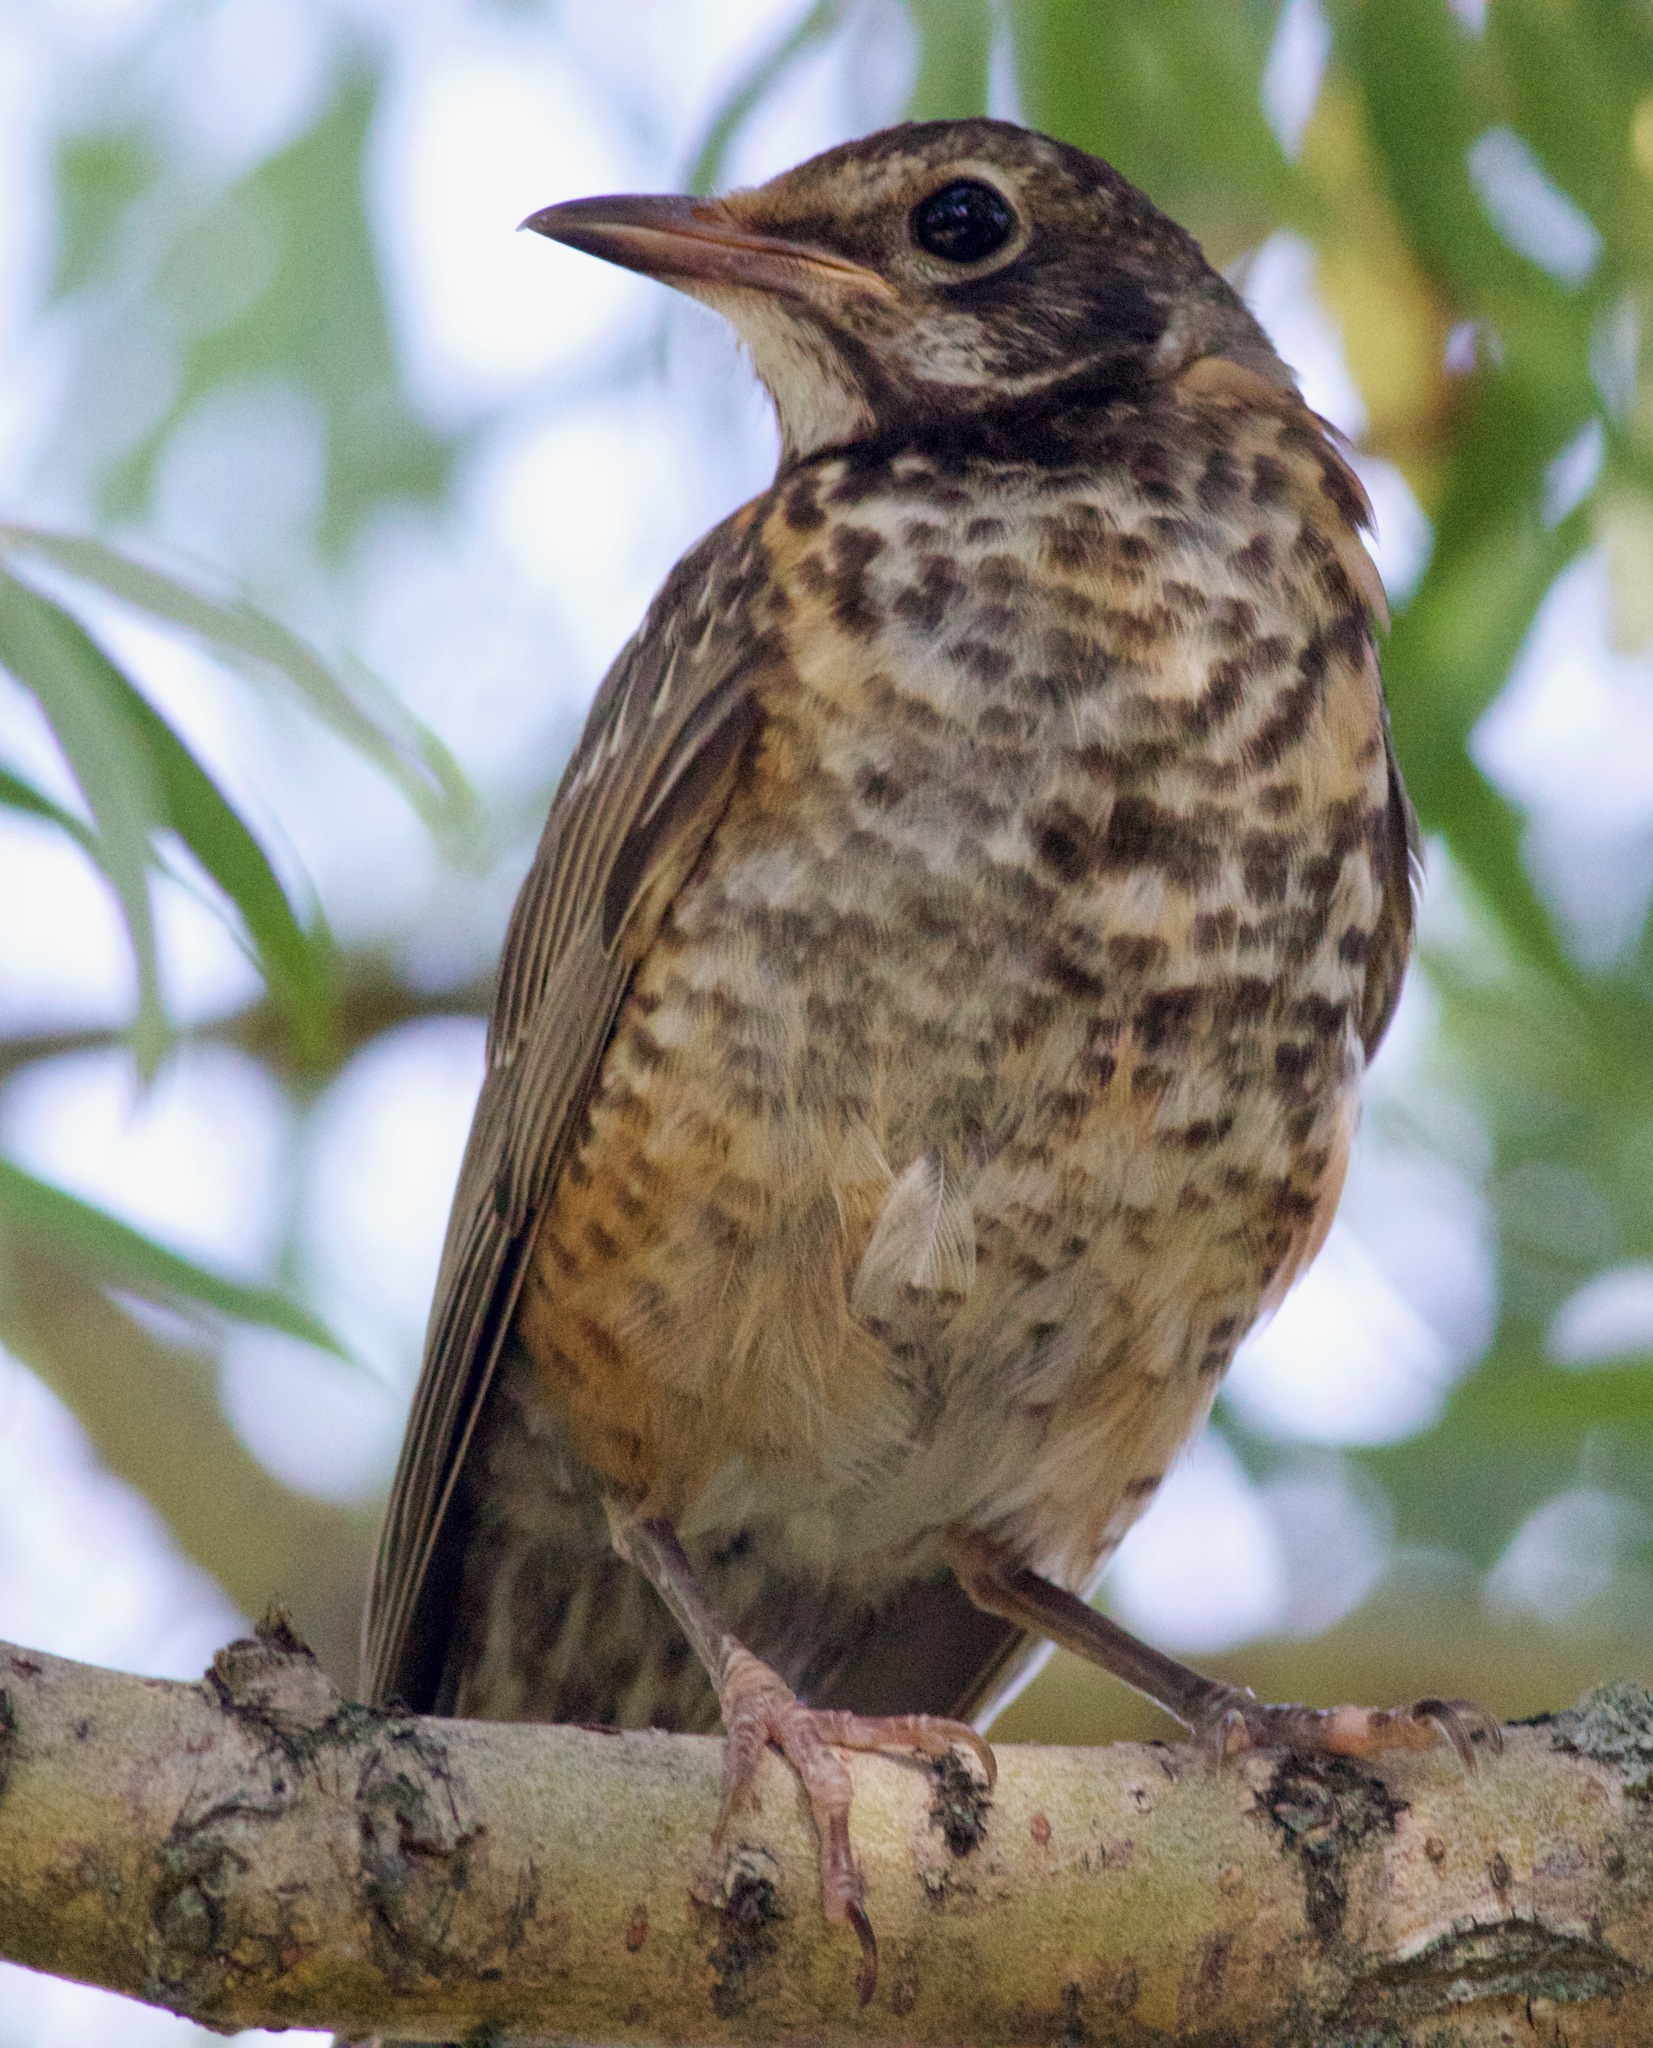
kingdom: Animalia
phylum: Chordata
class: Aves
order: Passeriformes
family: Turdidae
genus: Turdus
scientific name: Turdus migratorius
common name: American robin
